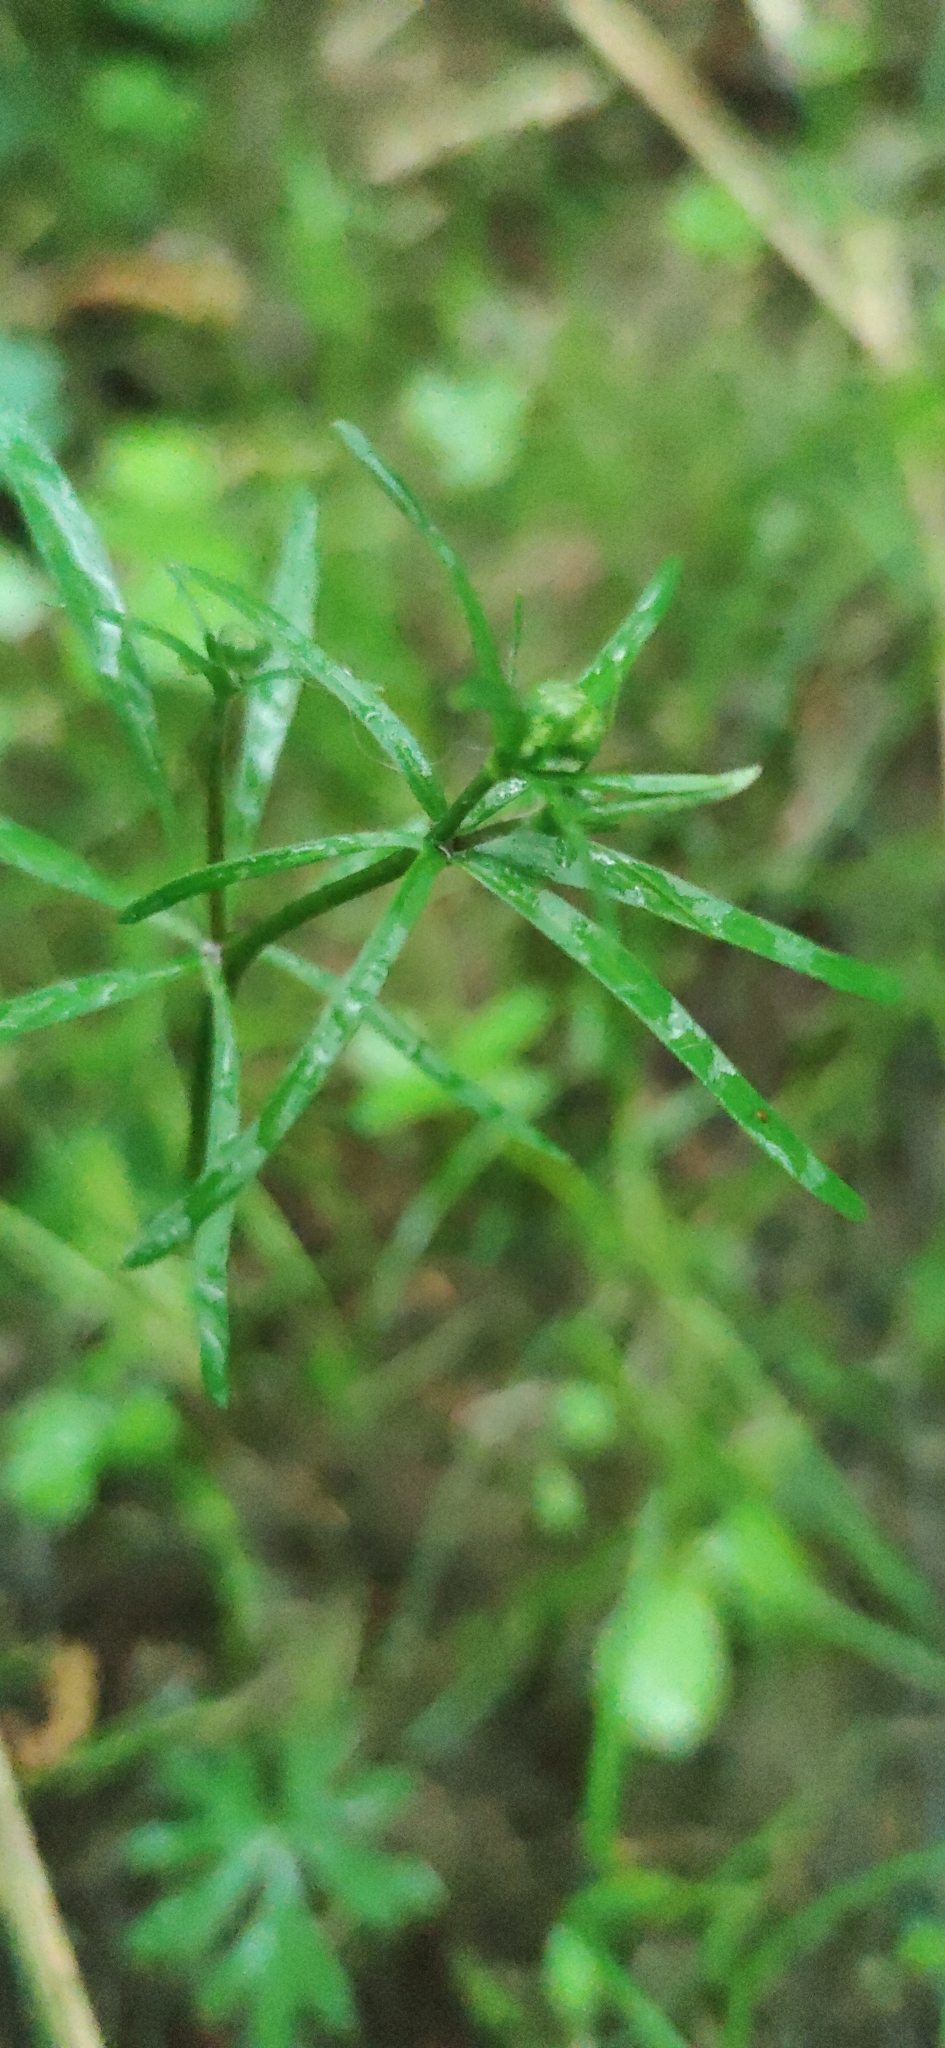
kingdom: Plantae
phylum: Tracheophyta
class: Magnoliopsida
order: Ranunculales
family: Ranunculaceae
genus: Ranunculus
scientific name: Ranunculus auricomus
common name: Goldilocks buttercup
